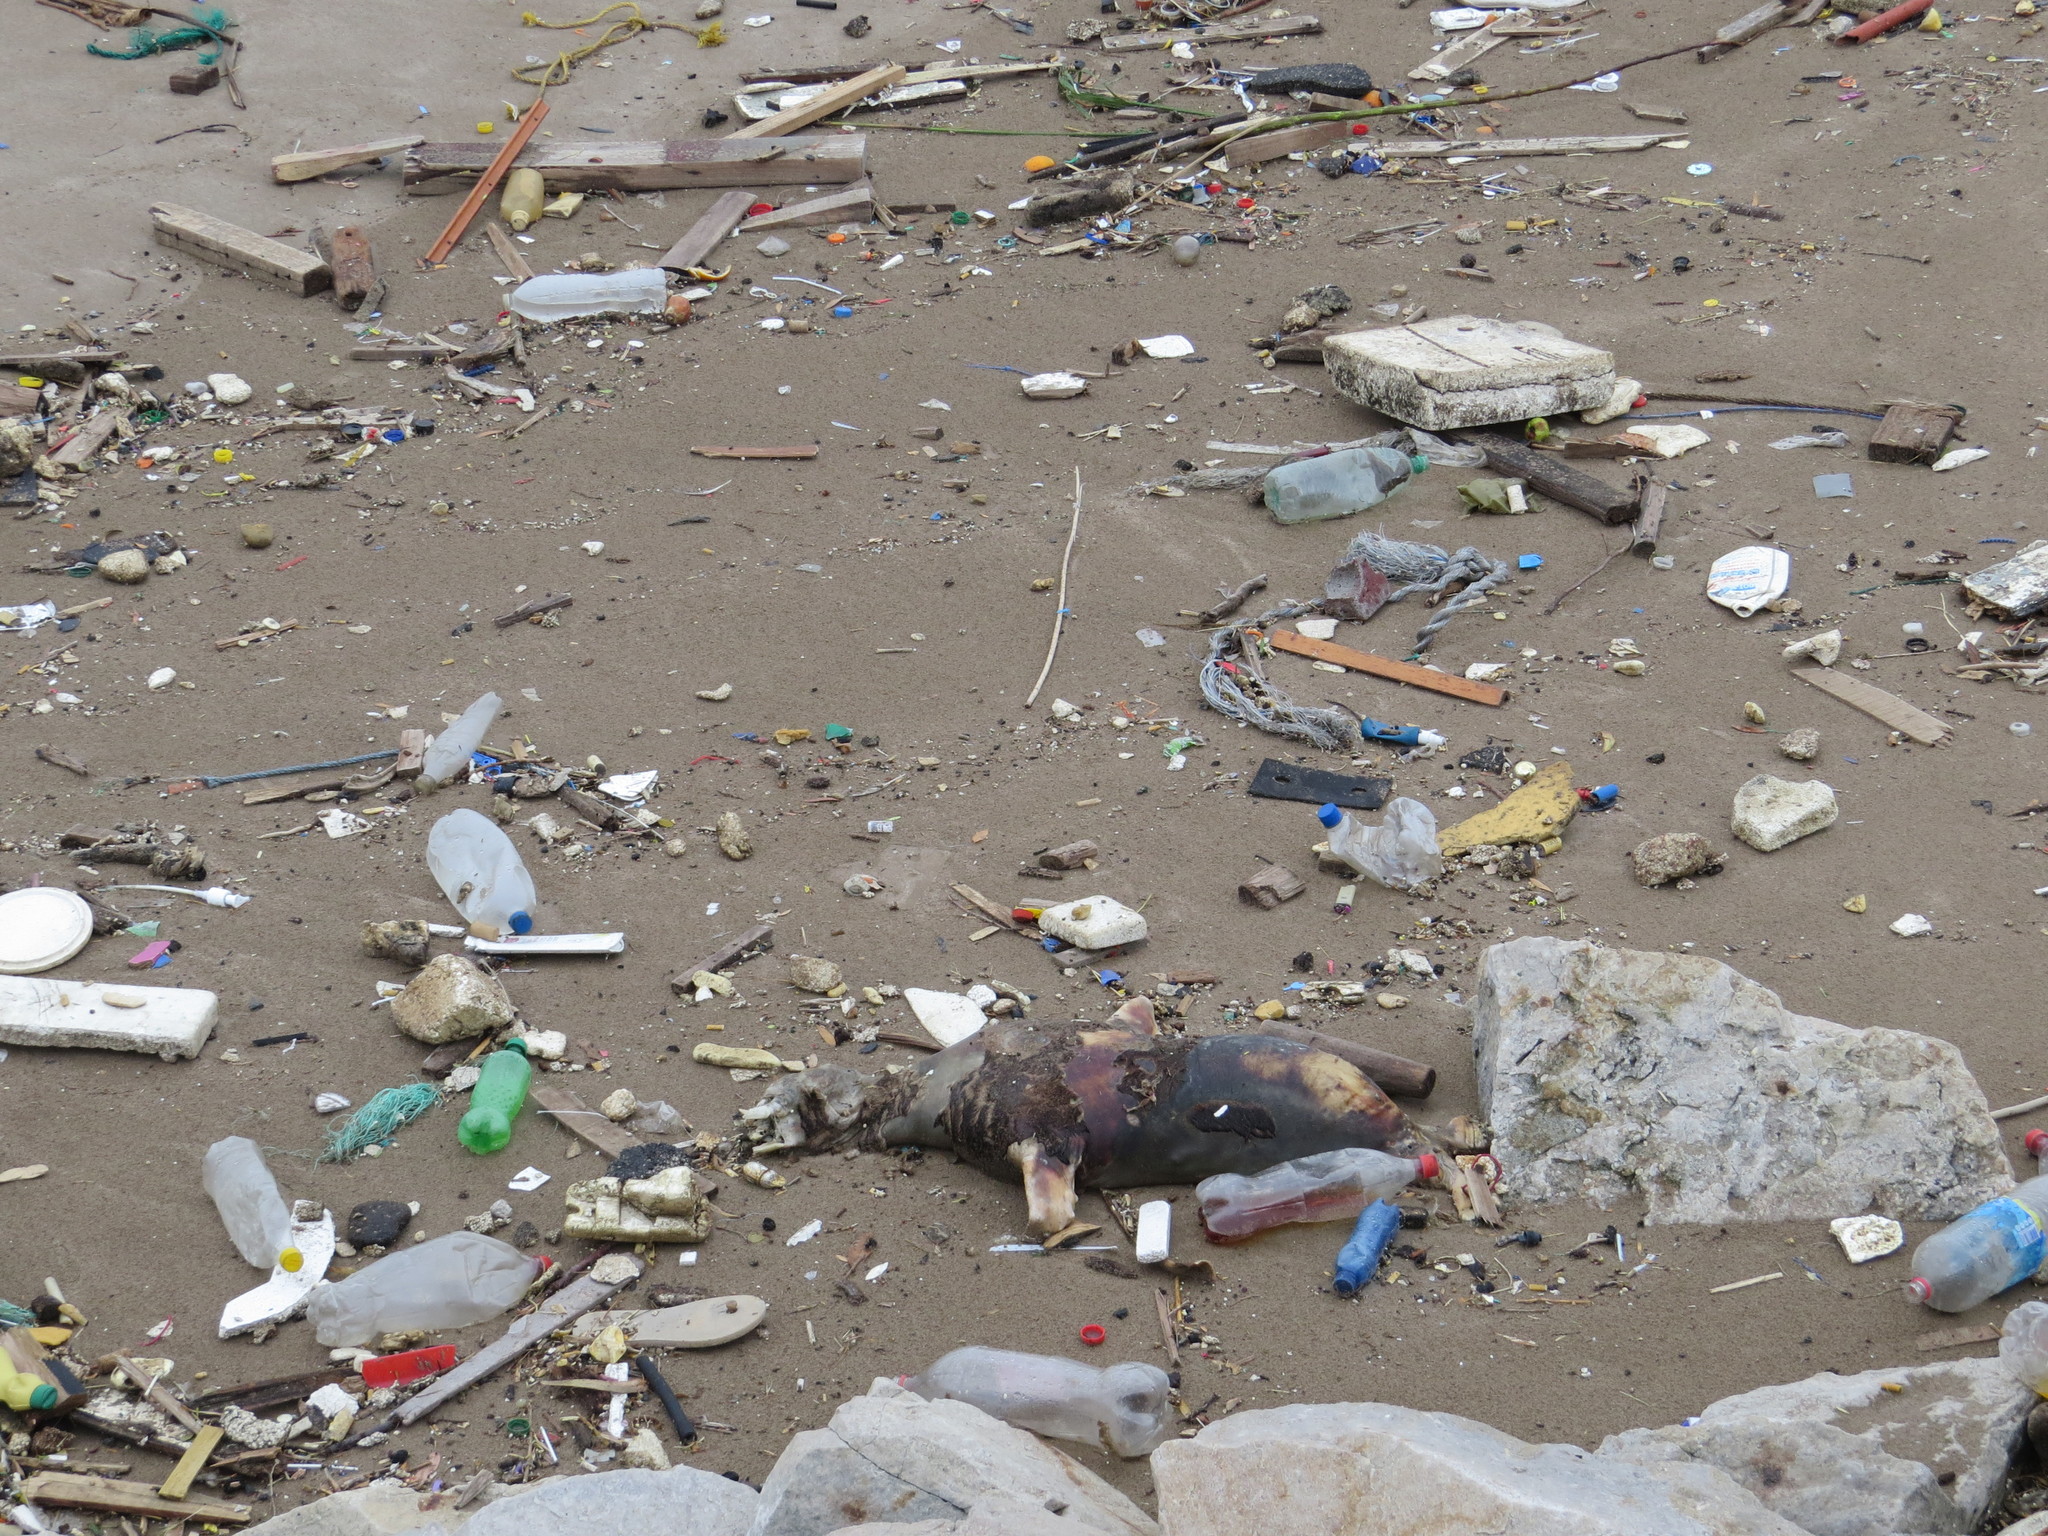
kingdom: Animalia
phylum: Chordata
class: Mammalia
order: Carnivora
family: Otariidae
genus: Otaria
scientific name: Otaria byronia
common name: South american sea lion
